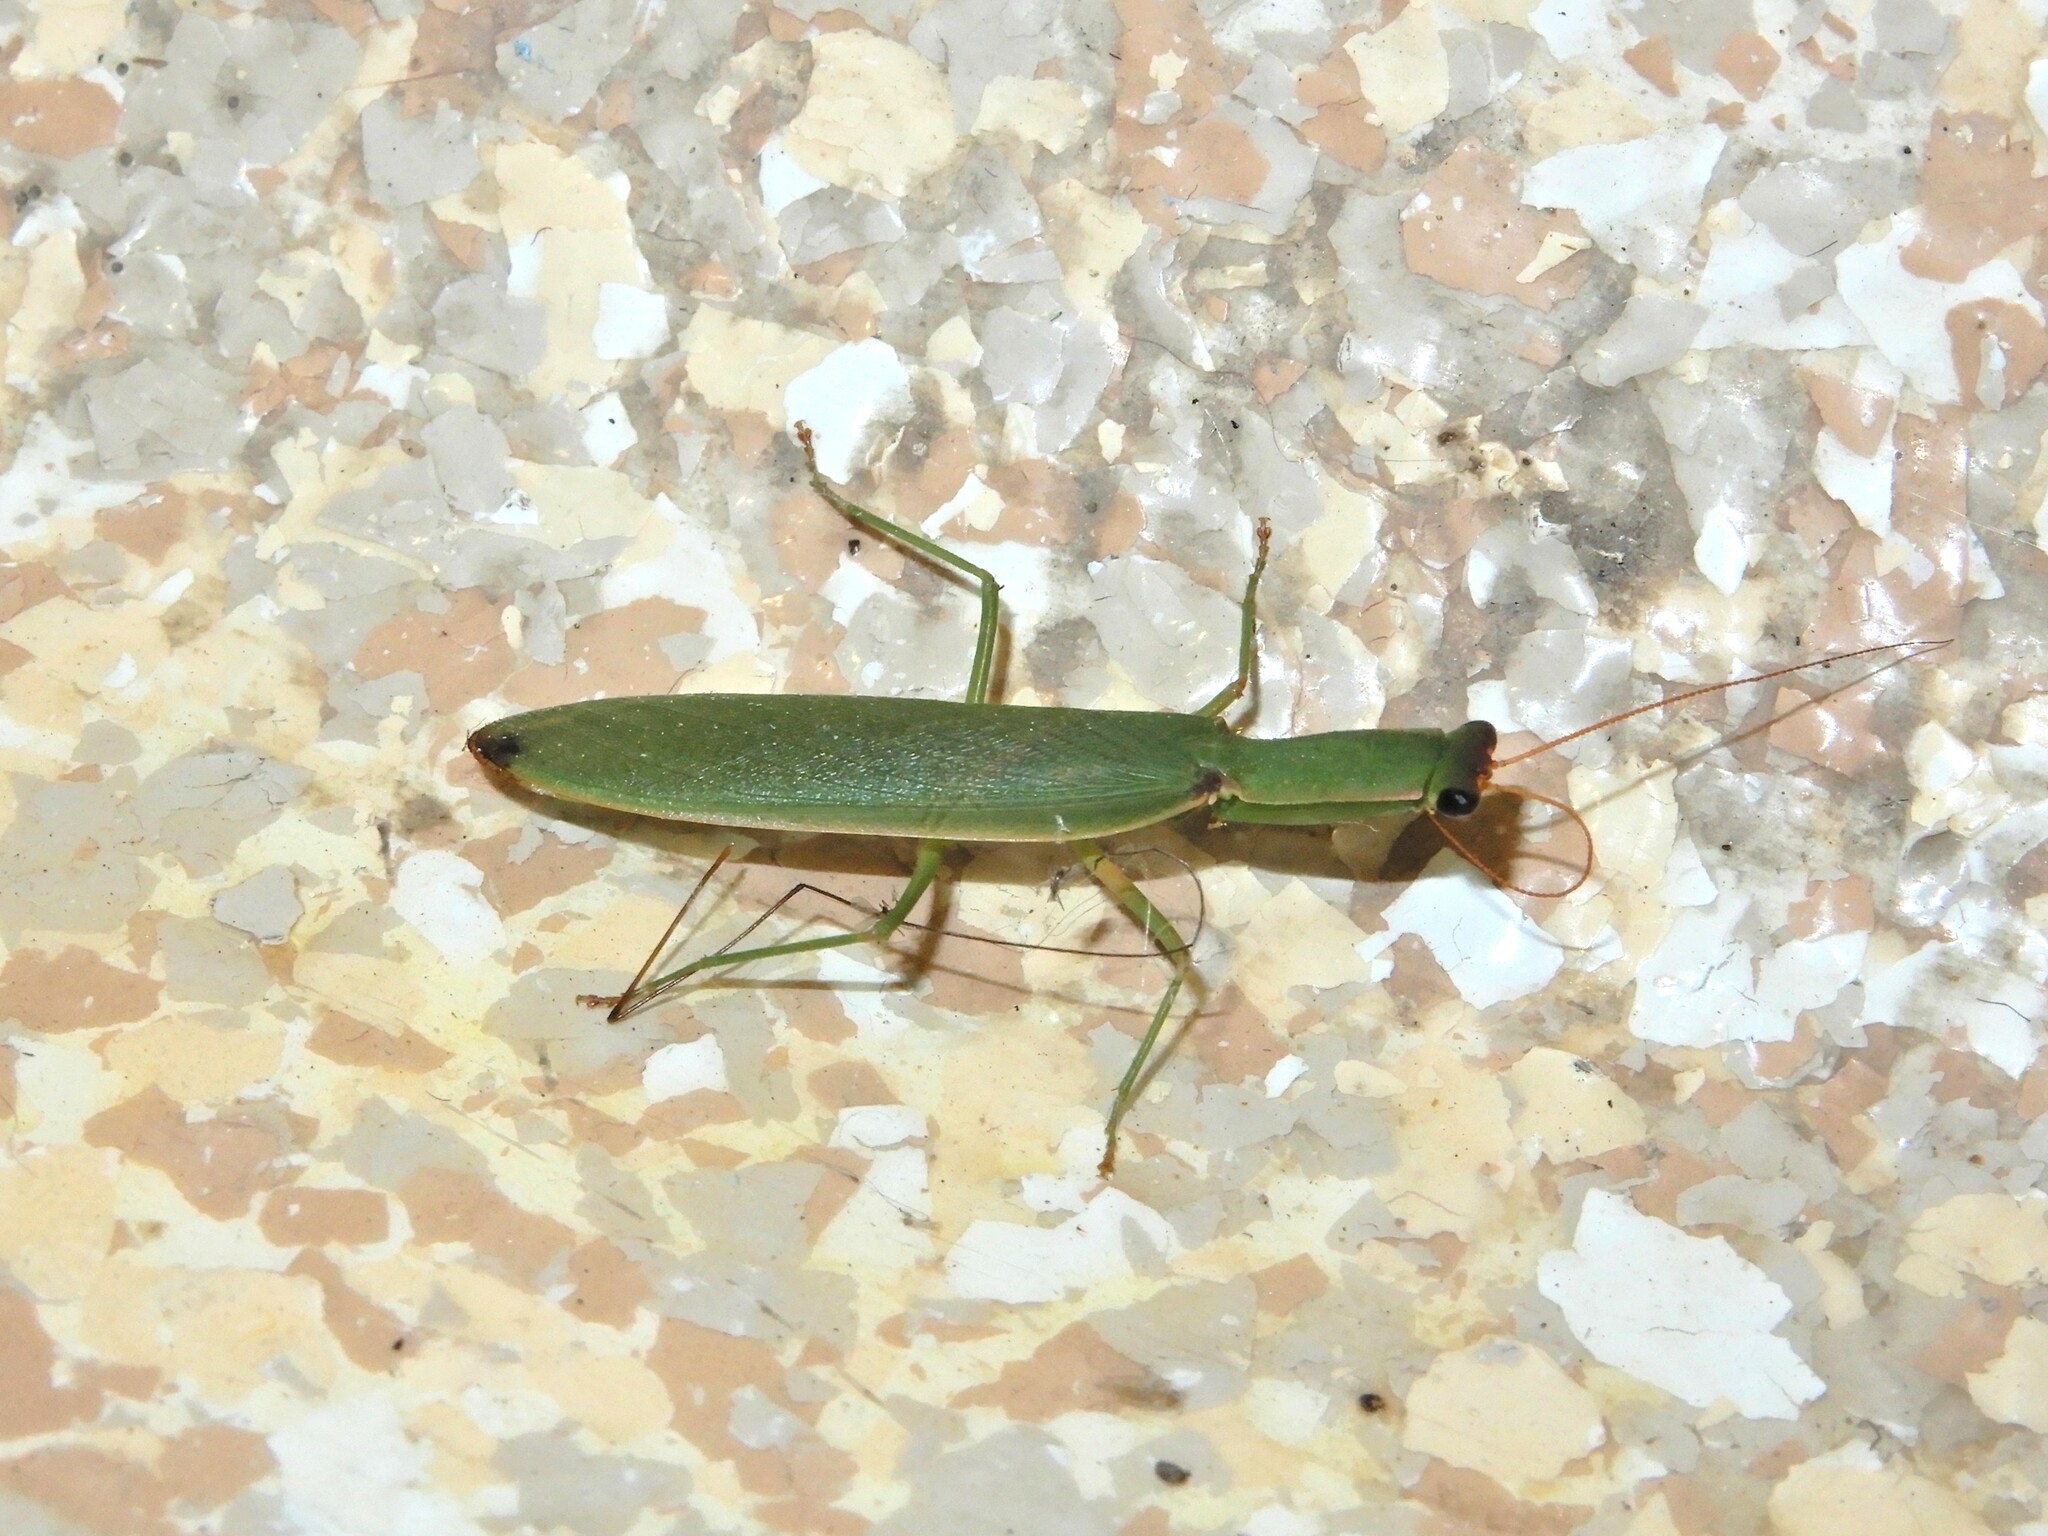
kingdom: Animalia
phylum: Arthropoda
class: Insecta
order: Mantodea
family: Mantidae
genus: Orthodera
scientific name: Orthodera novaezealandiae
